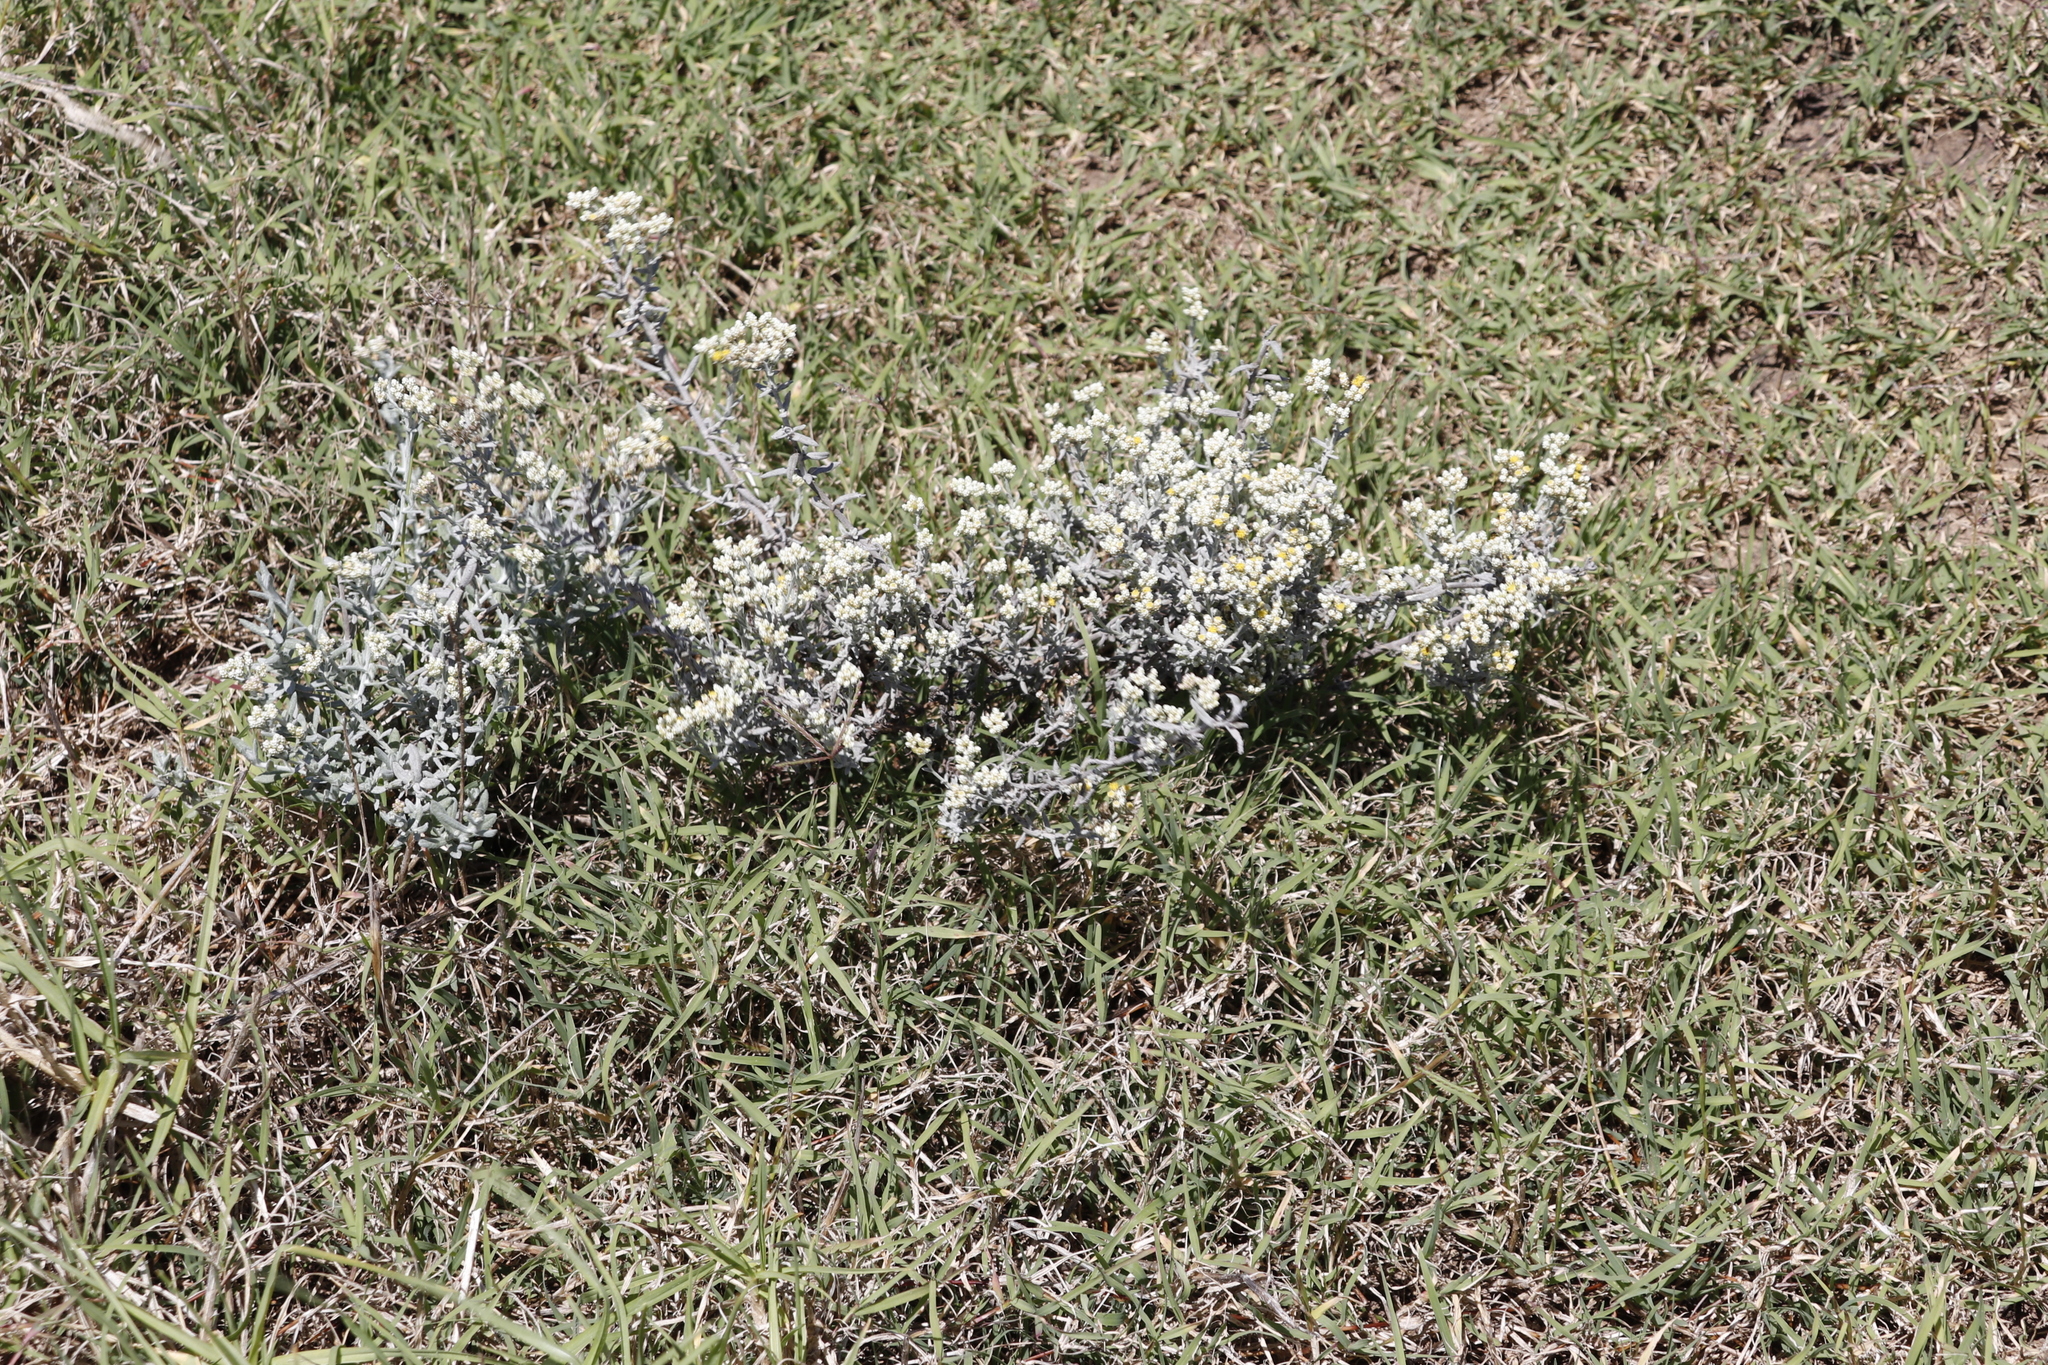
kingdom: Plantae
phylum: Tracheophyta
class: Magnoliopsida
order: Asterales
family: Asteraceae
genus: Helichrysum
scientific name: Helichrysum rosum
